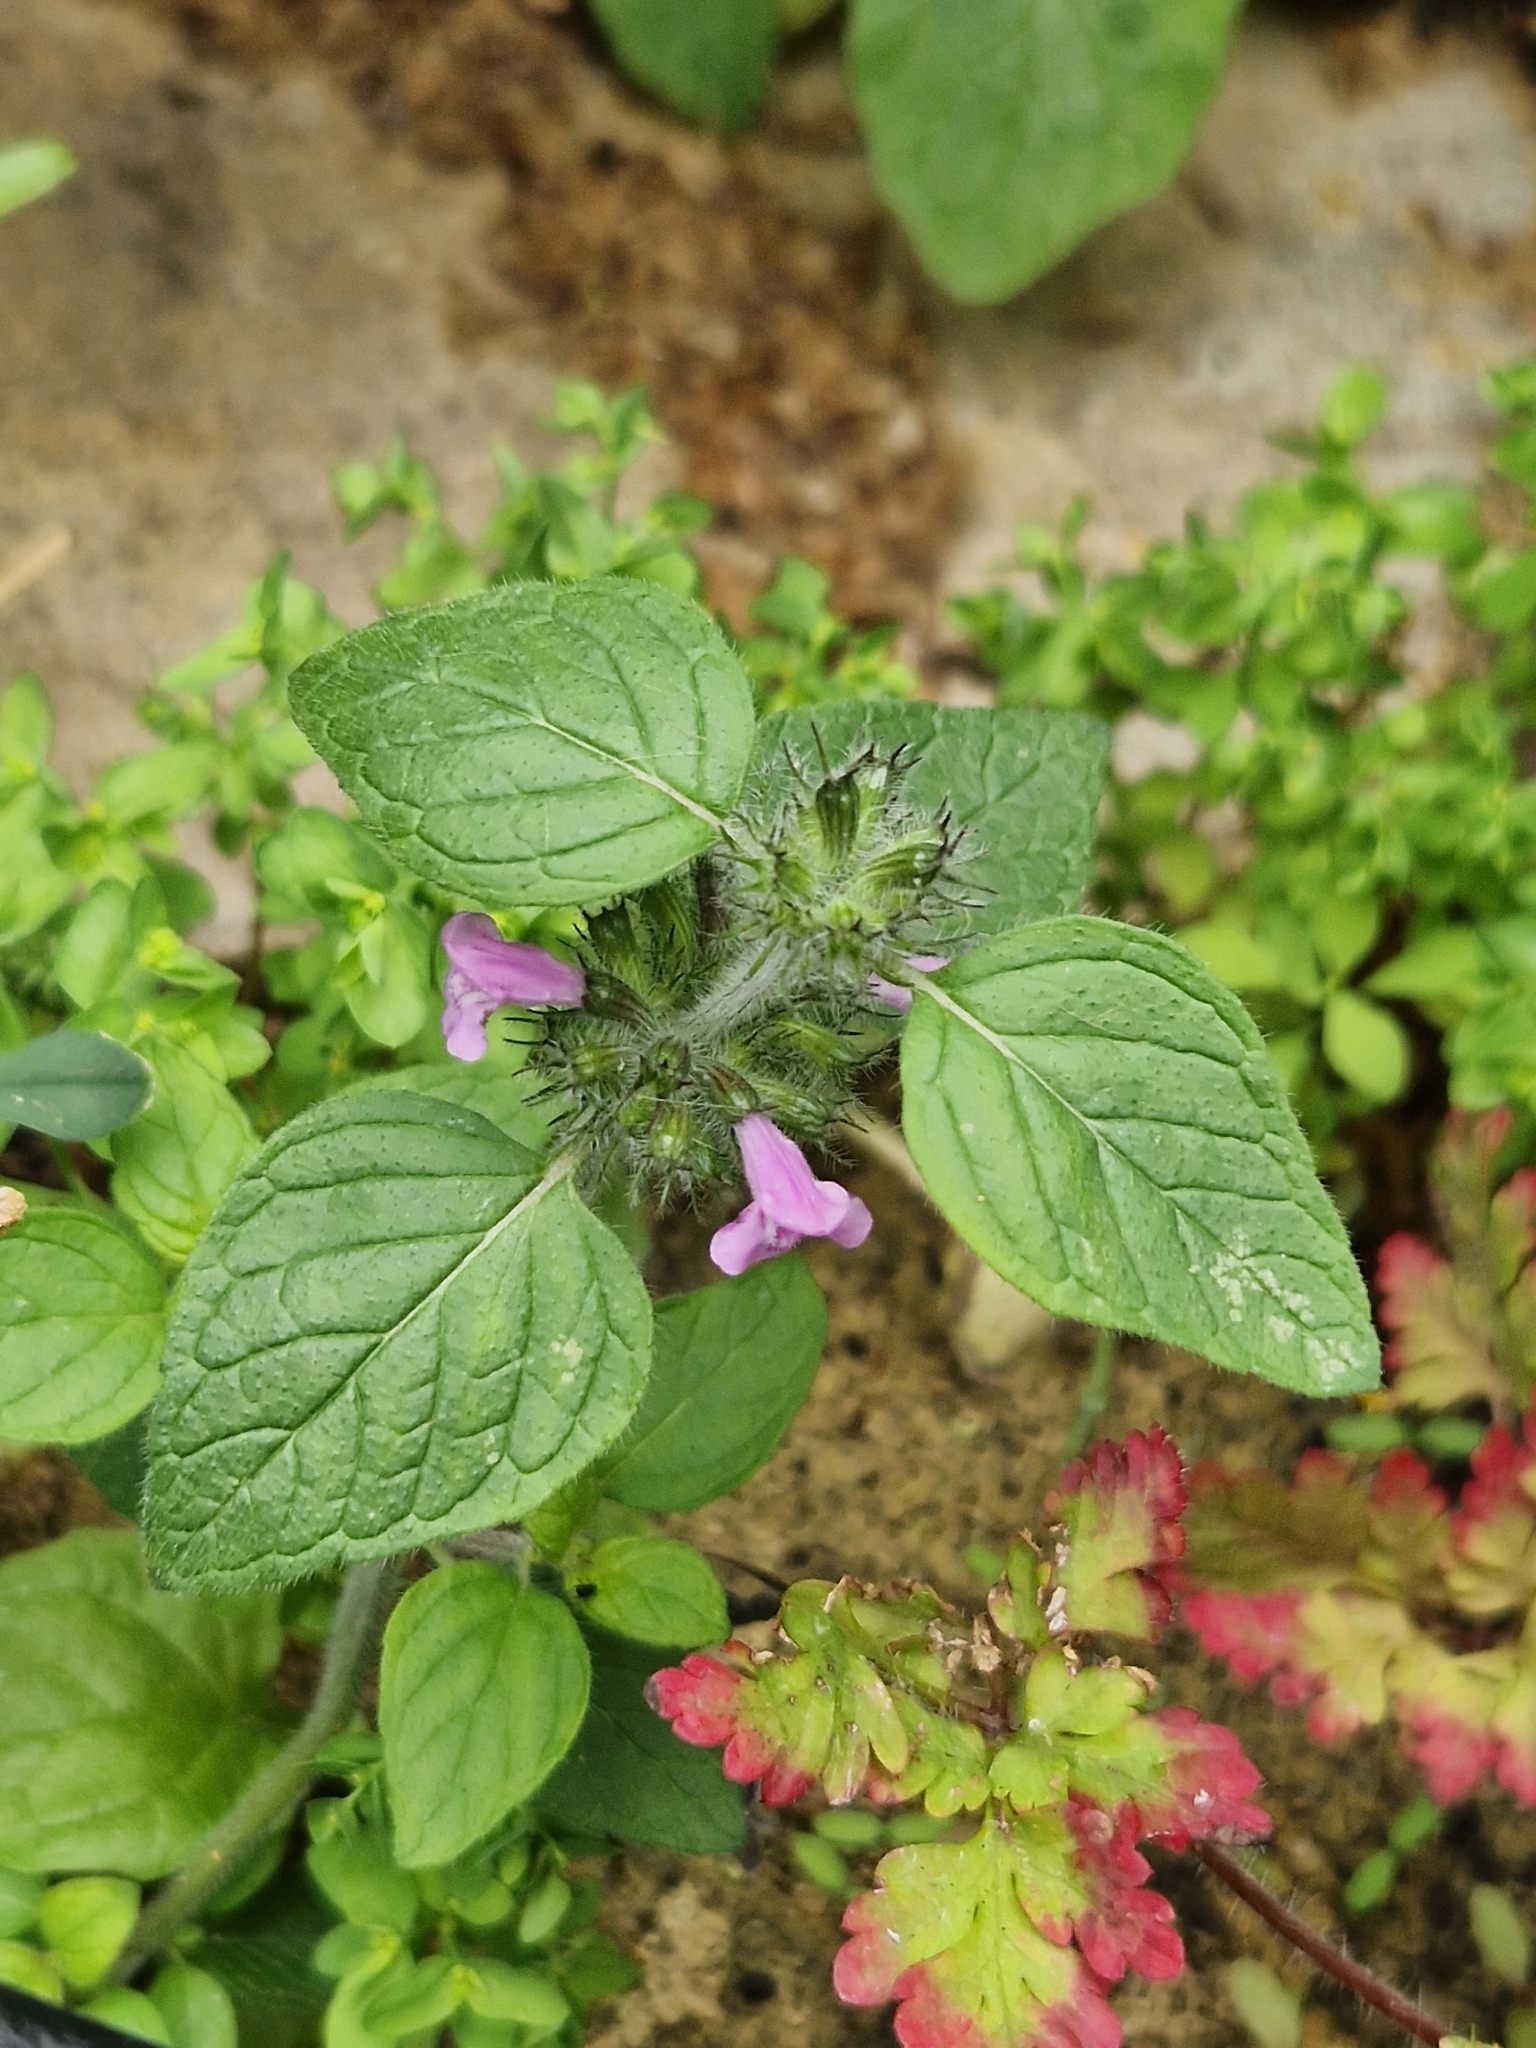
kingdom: Plantae
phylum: Tracheophyta
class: Magnoliopsida
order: Lamiales
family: Lamiaceae
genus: Clinopodium
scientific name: Clinopodium vulgare
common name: Wild basil
